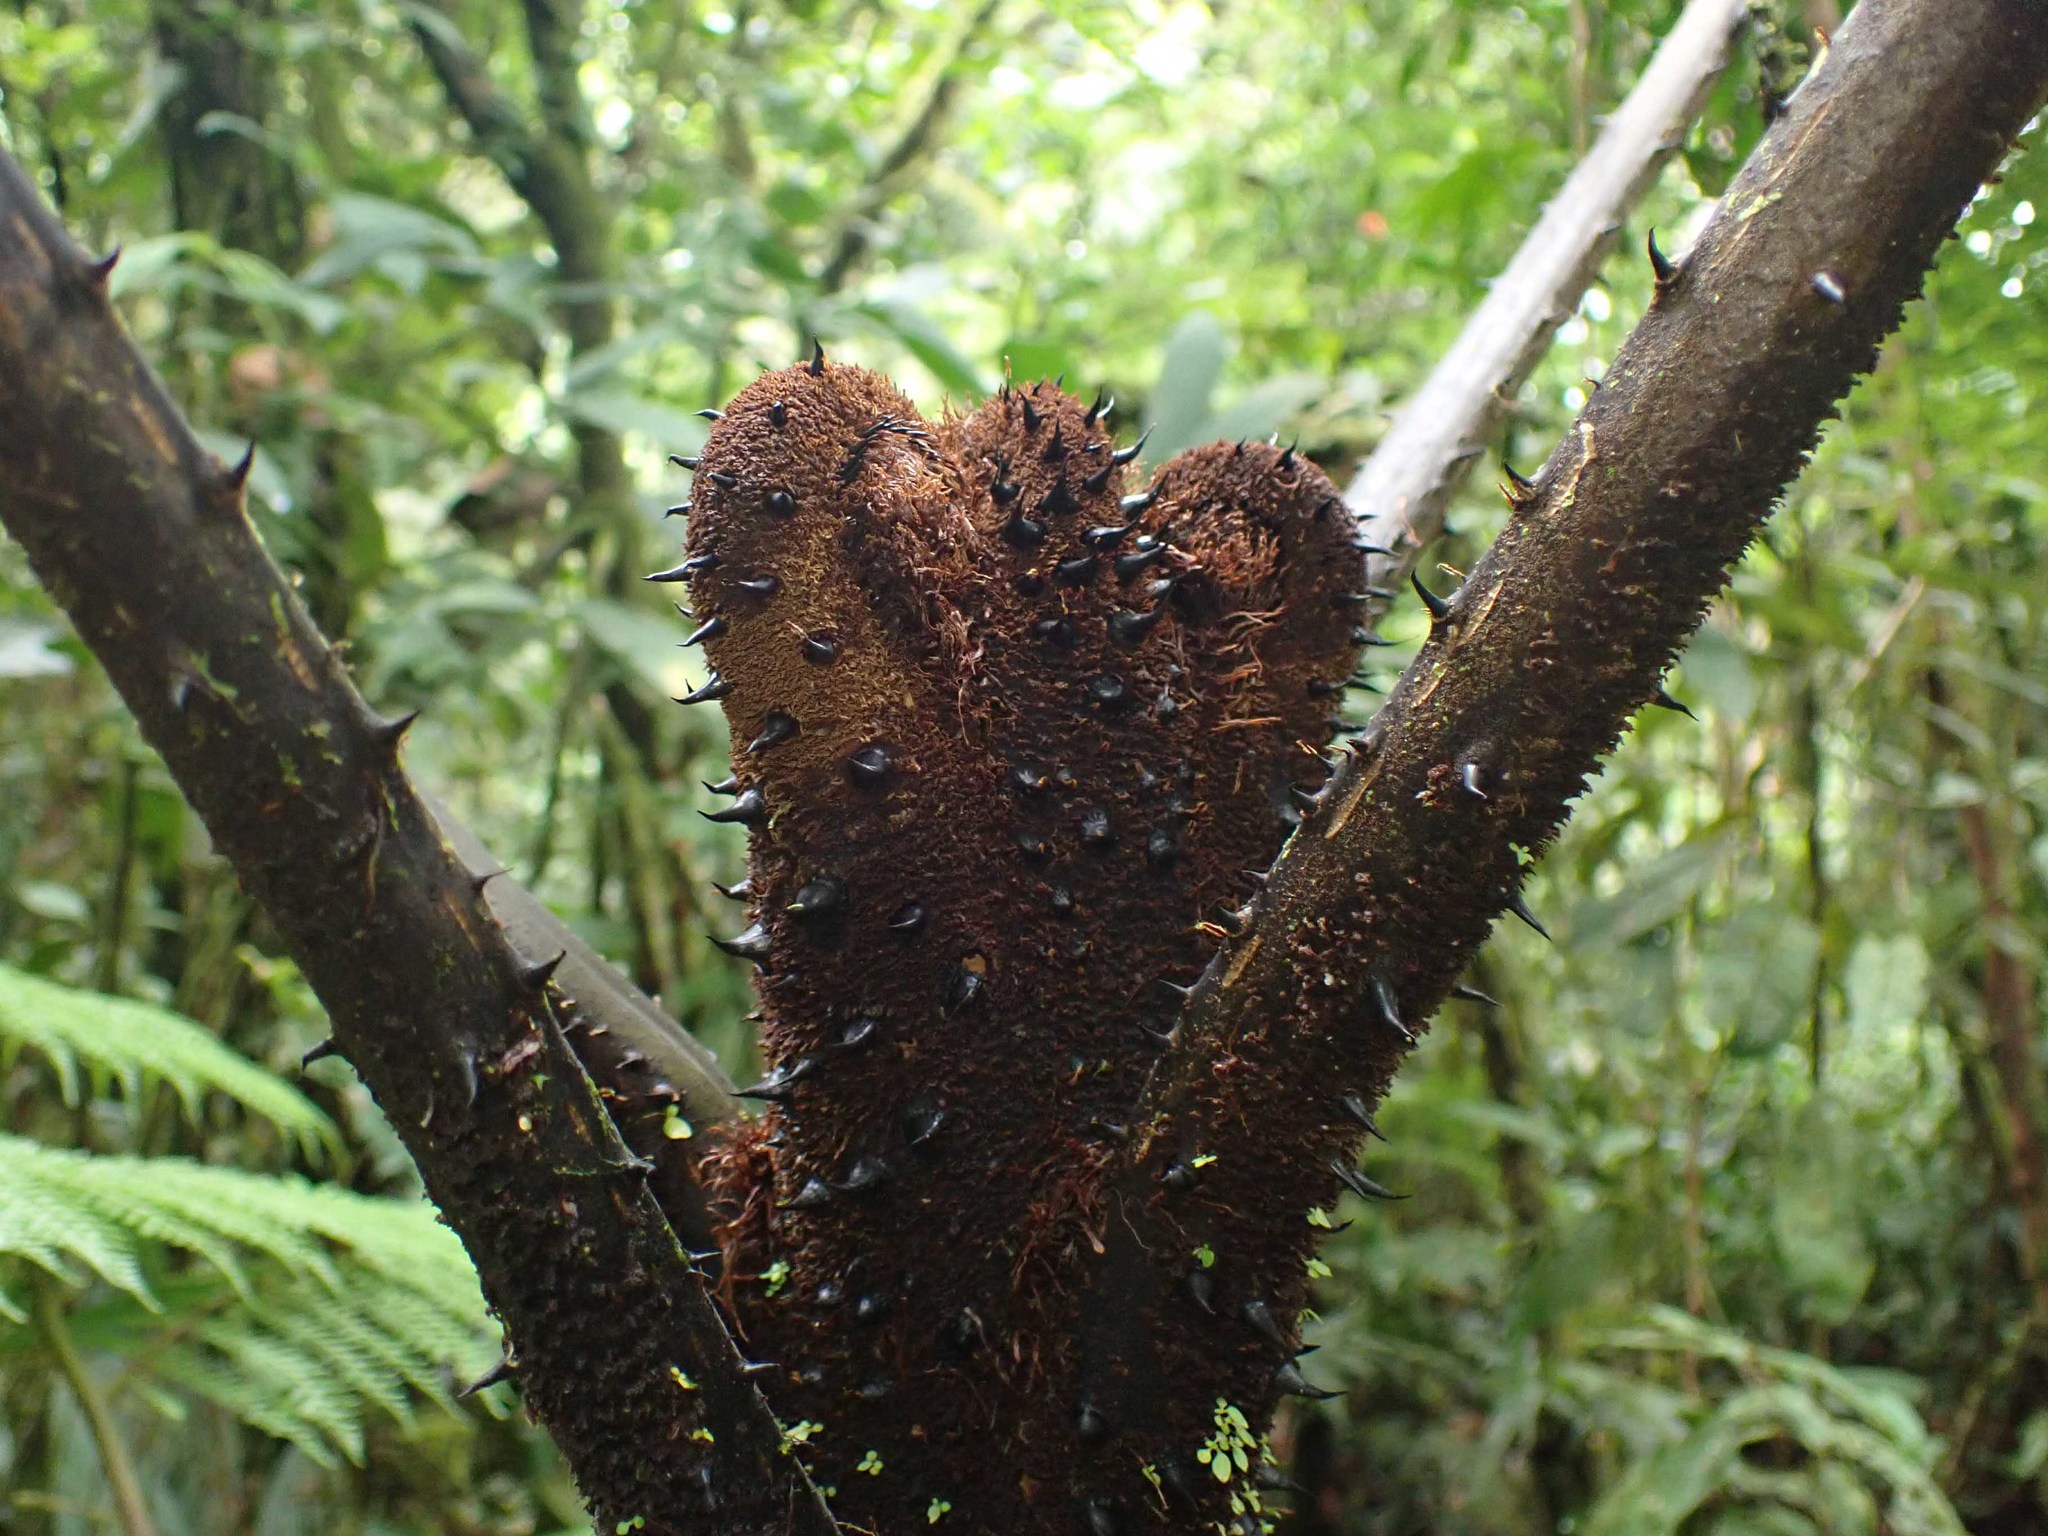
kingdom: Plantae
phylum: Tracheophyta
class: Polypodiopsida
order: Cyatheales
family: Cyatheaceae
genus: Alsophila
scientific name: Alsophila firma
